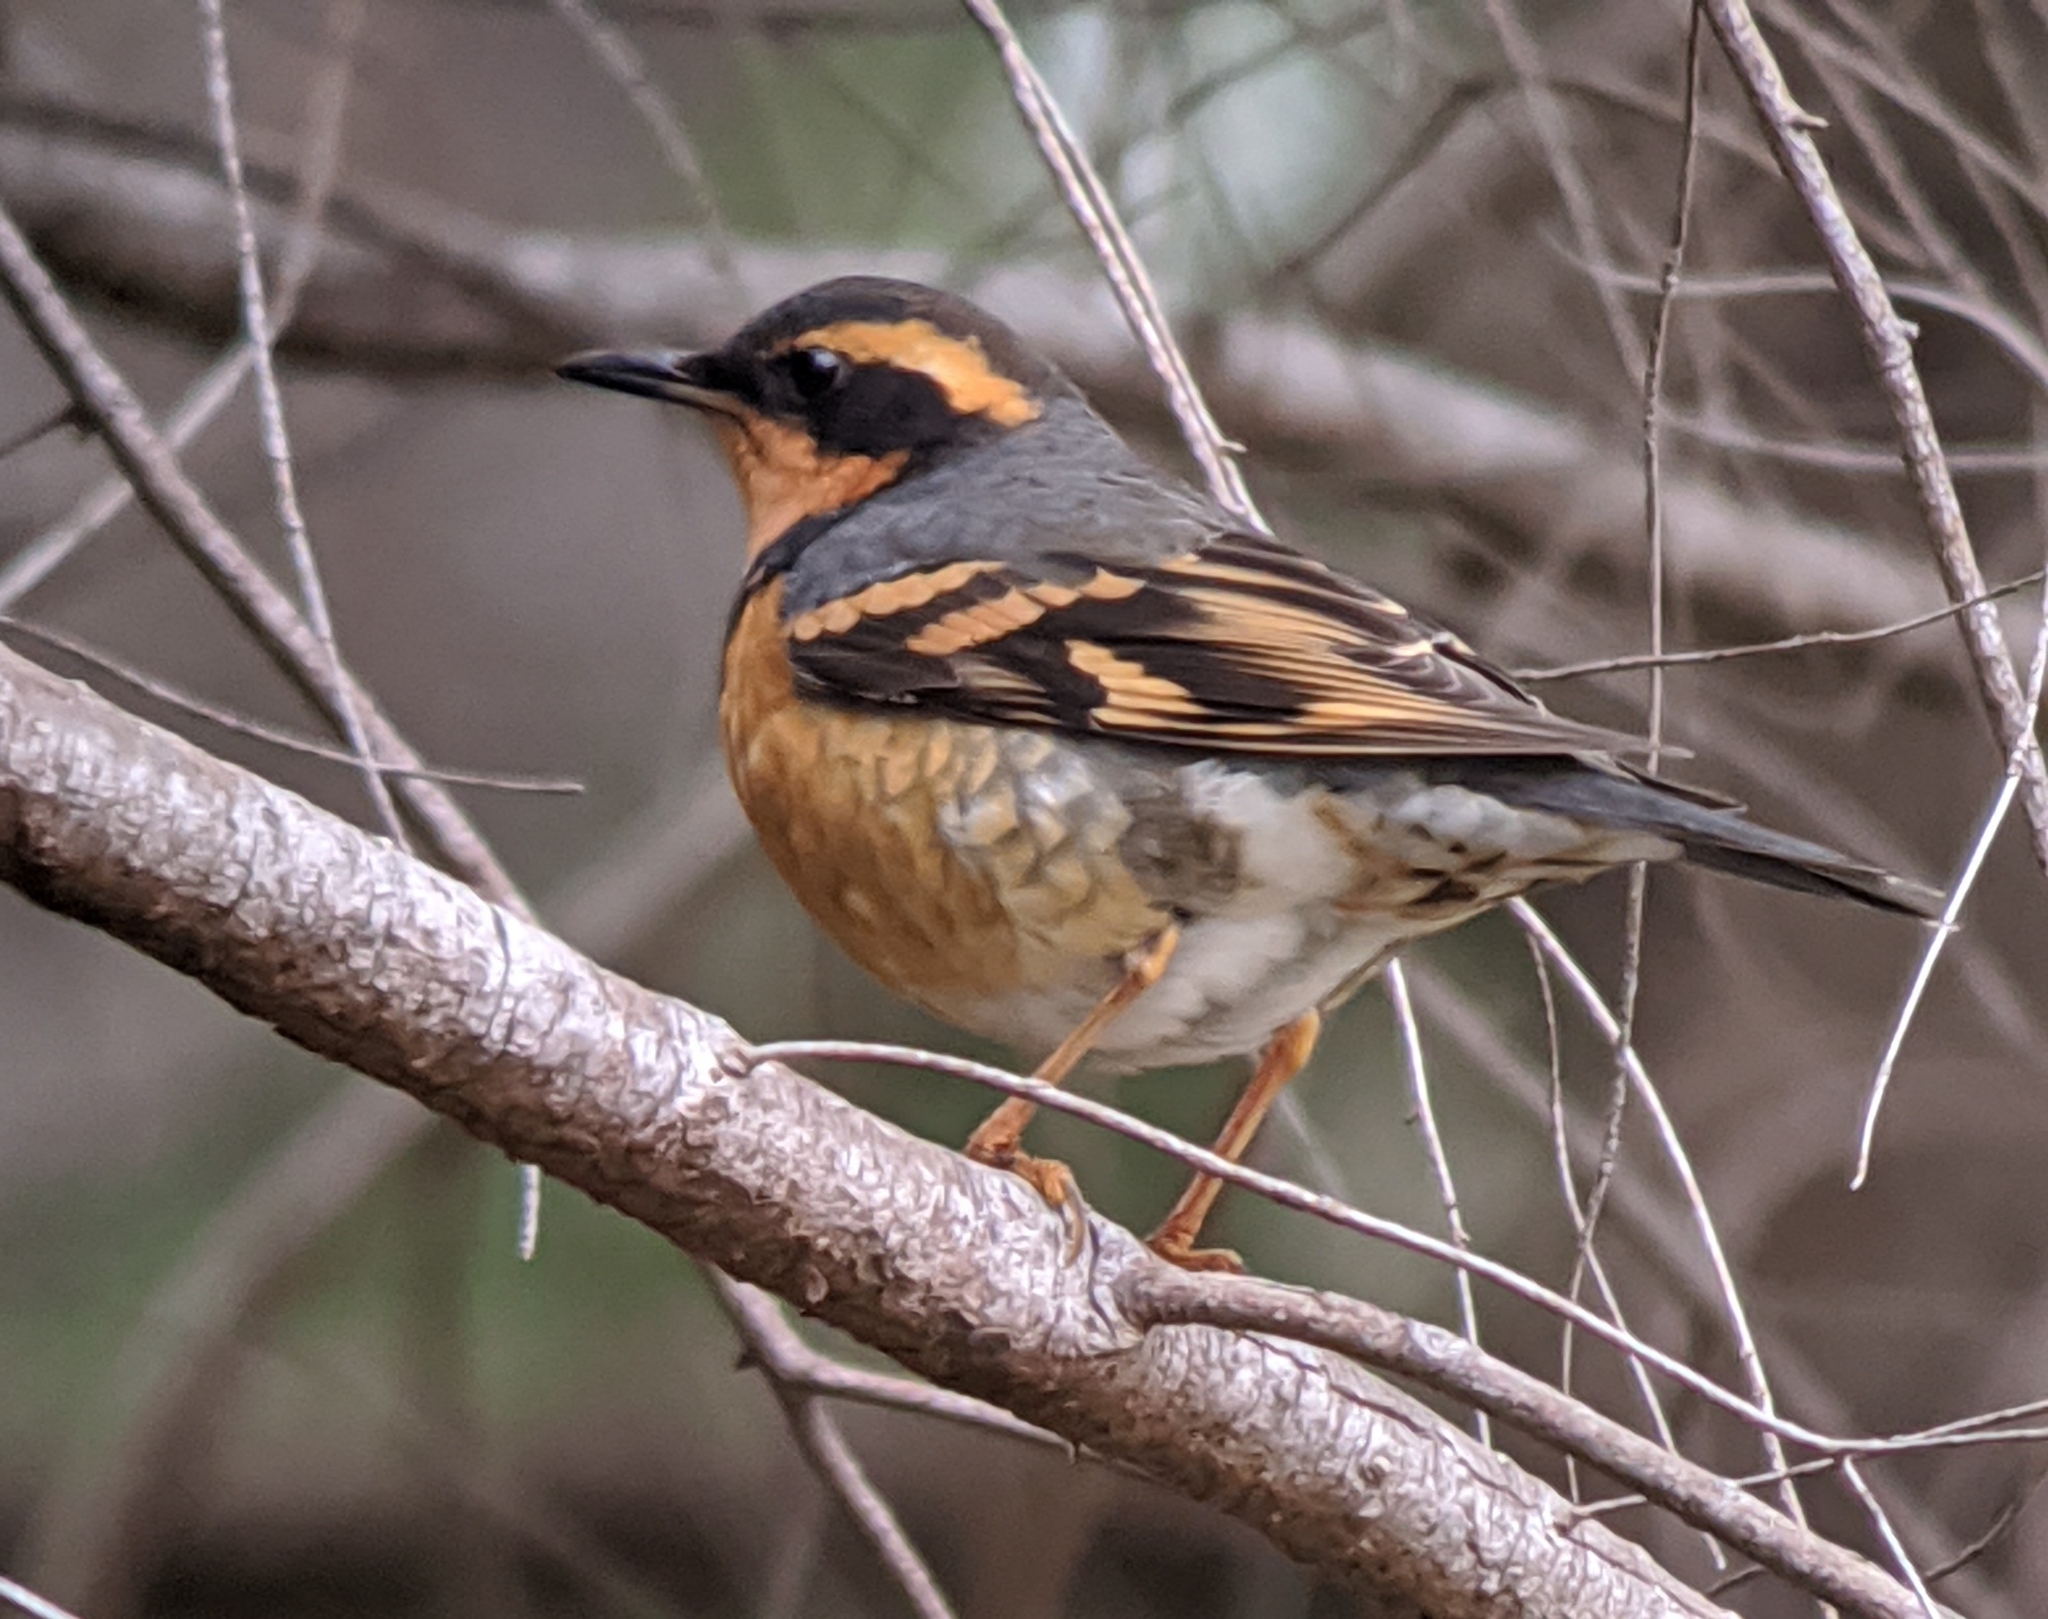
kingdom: Animalia
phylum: Chordata
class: Aves
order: Passeriformes
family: Turdidae
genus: Ixoreus
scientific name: Ixoreus naevius
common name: Varied thrush
